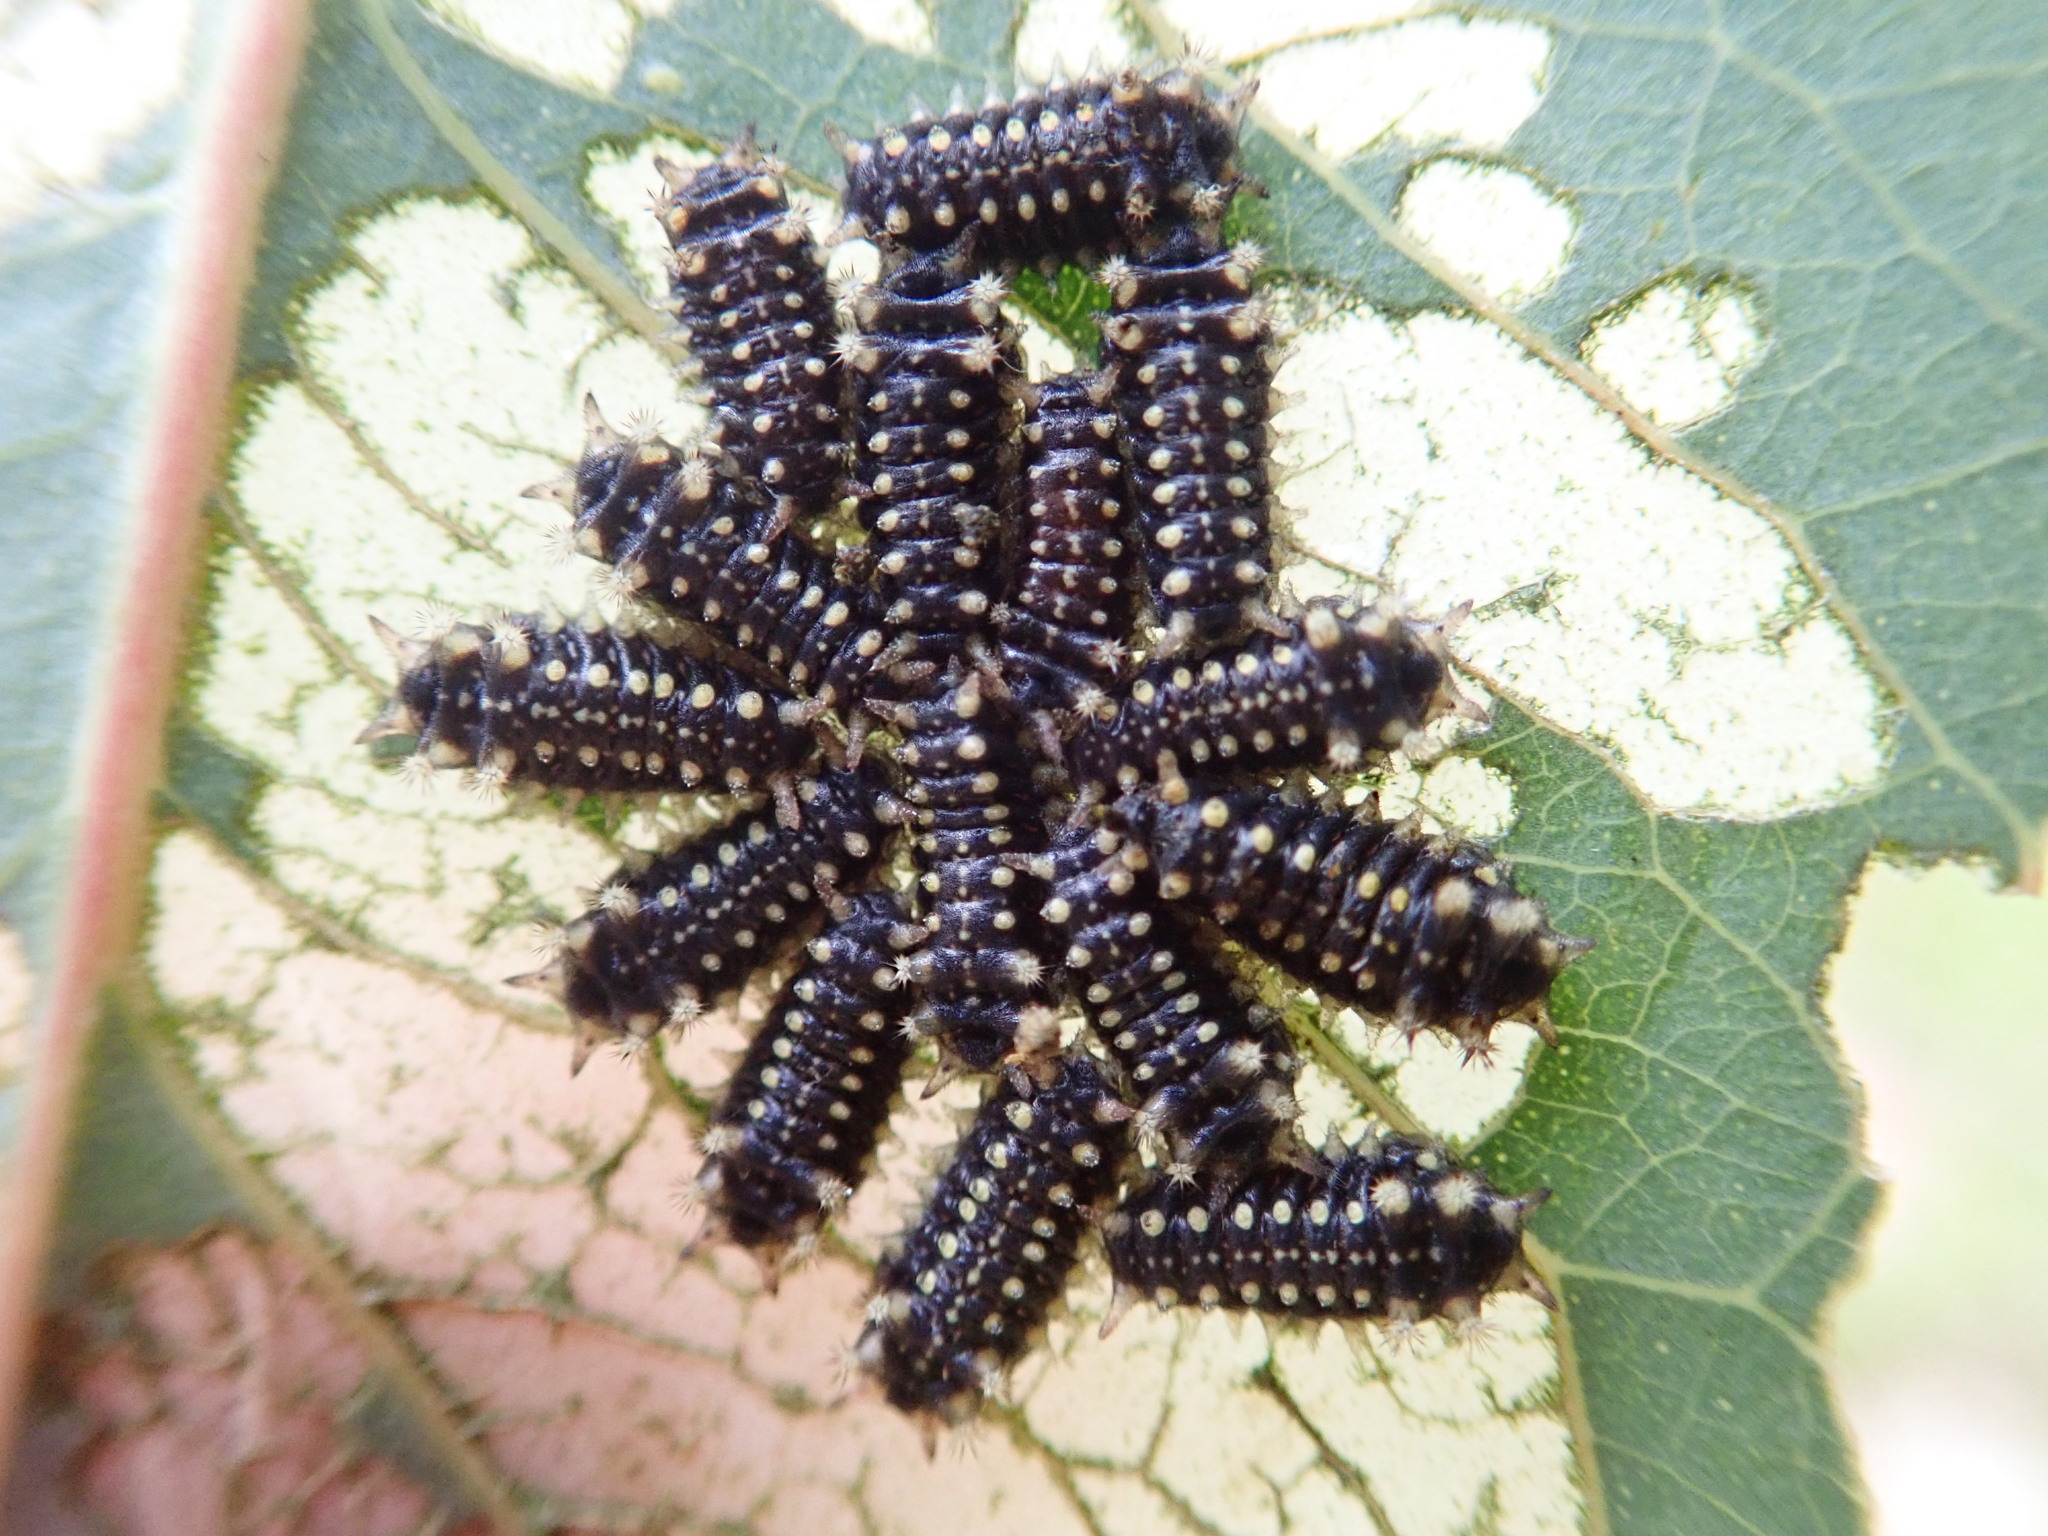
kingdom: Animalia
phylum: Arthropoda
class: Insecta
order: Lepidoptera
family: Limacodidae
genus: Doratifera
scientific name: Doratifera casta
